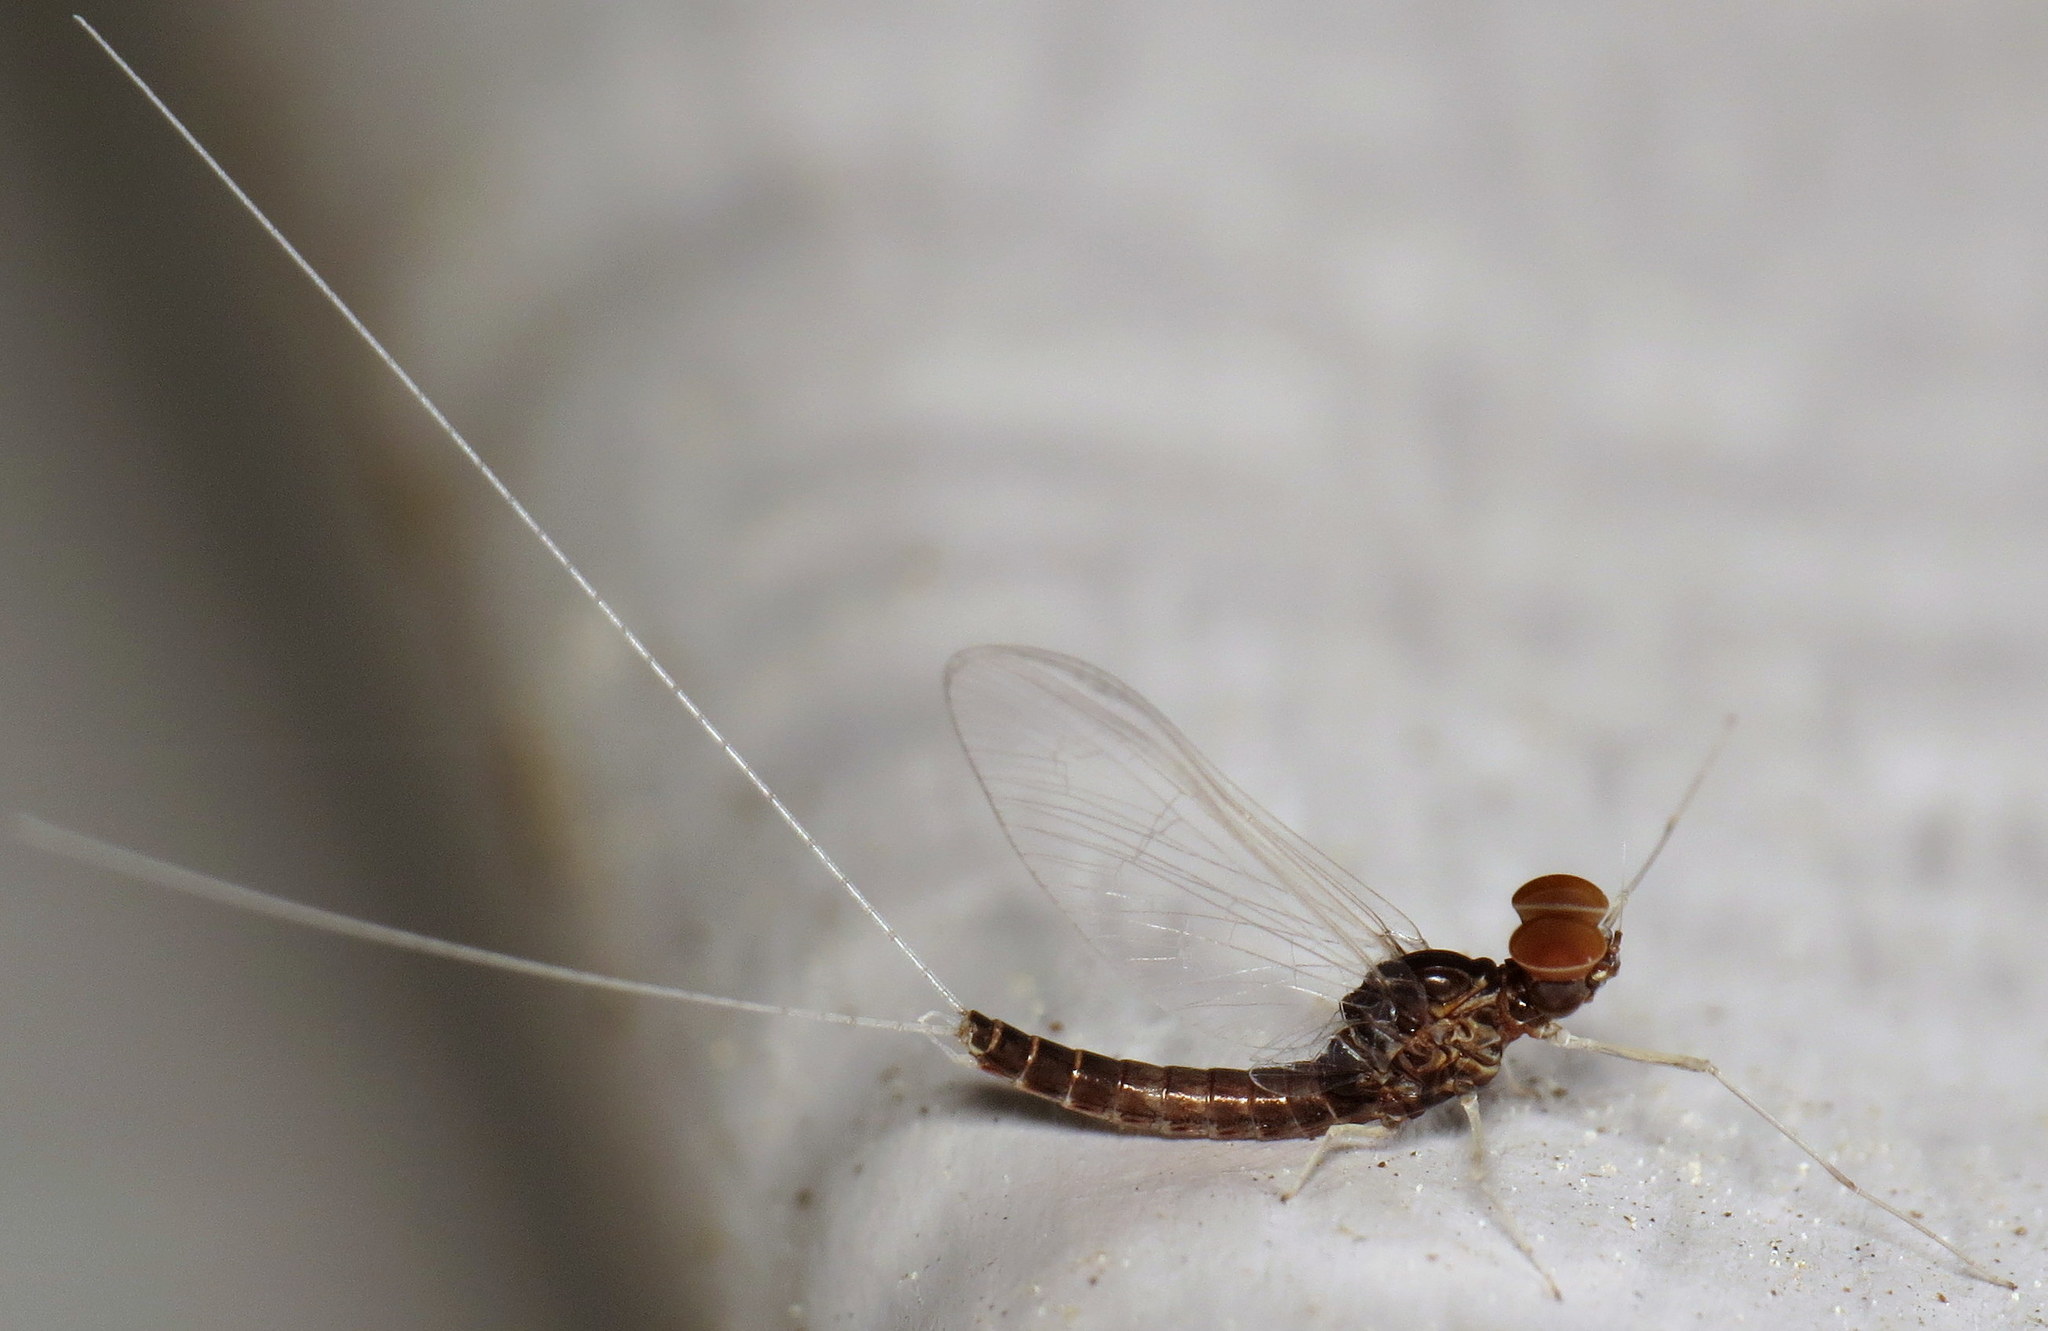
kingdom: Animalia
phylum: Arthropoda
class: Insecta
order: Ephemeroptera
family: Baetidae
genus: Callibaetis
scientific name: Callibaetis ferrugineus
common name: Red speckled dun
